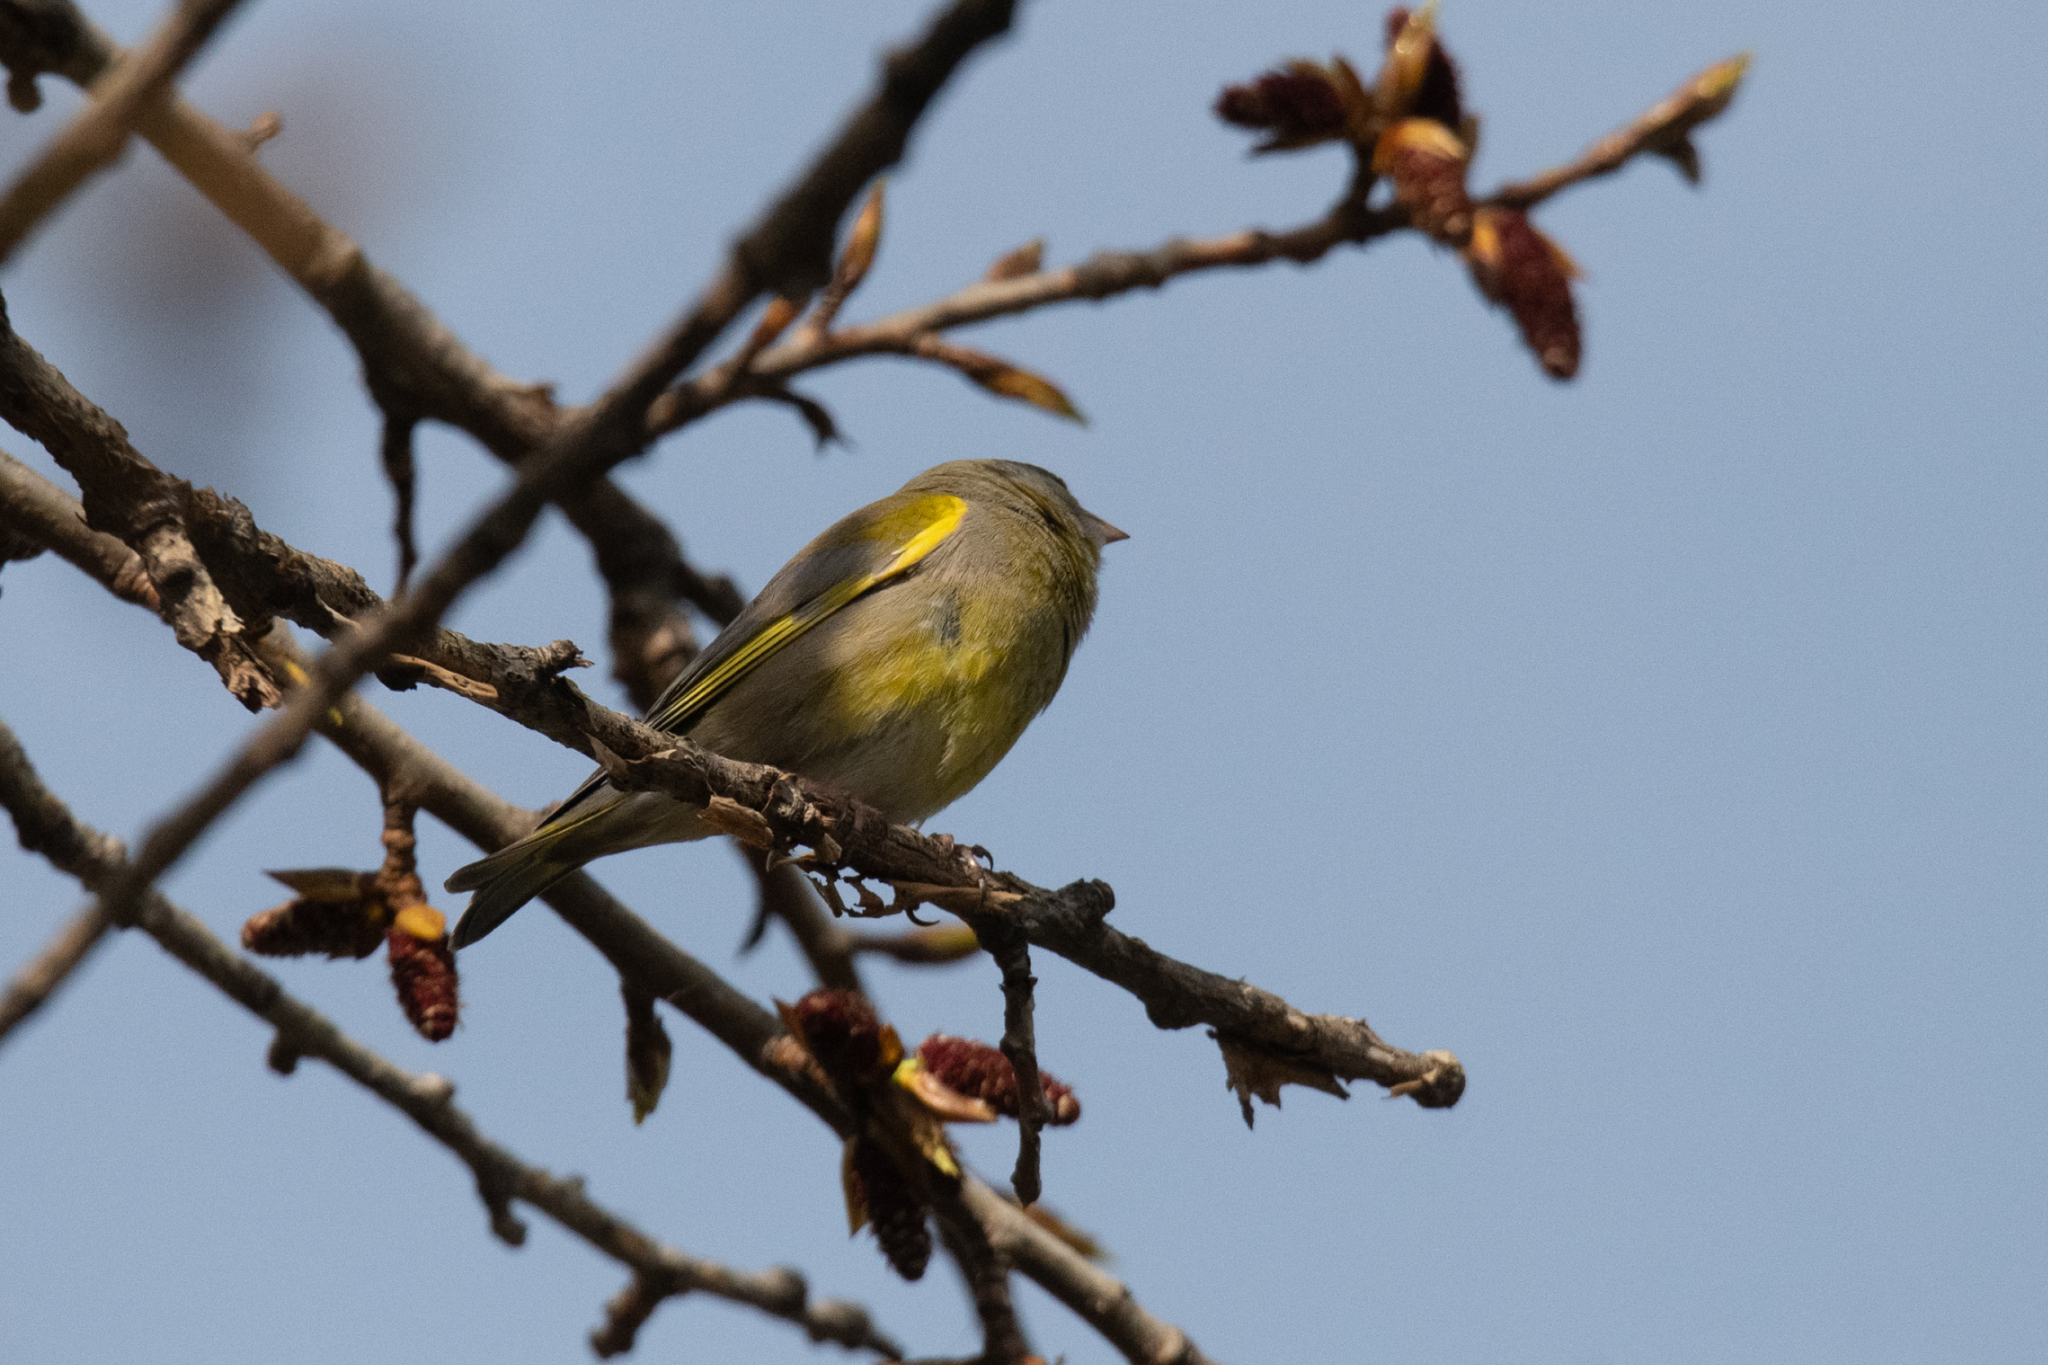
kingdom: Plantae
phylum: Tracheophyta
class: Liliopsida
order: Poales
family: Poaceae
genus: Chloris
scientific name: Chloris chloris
